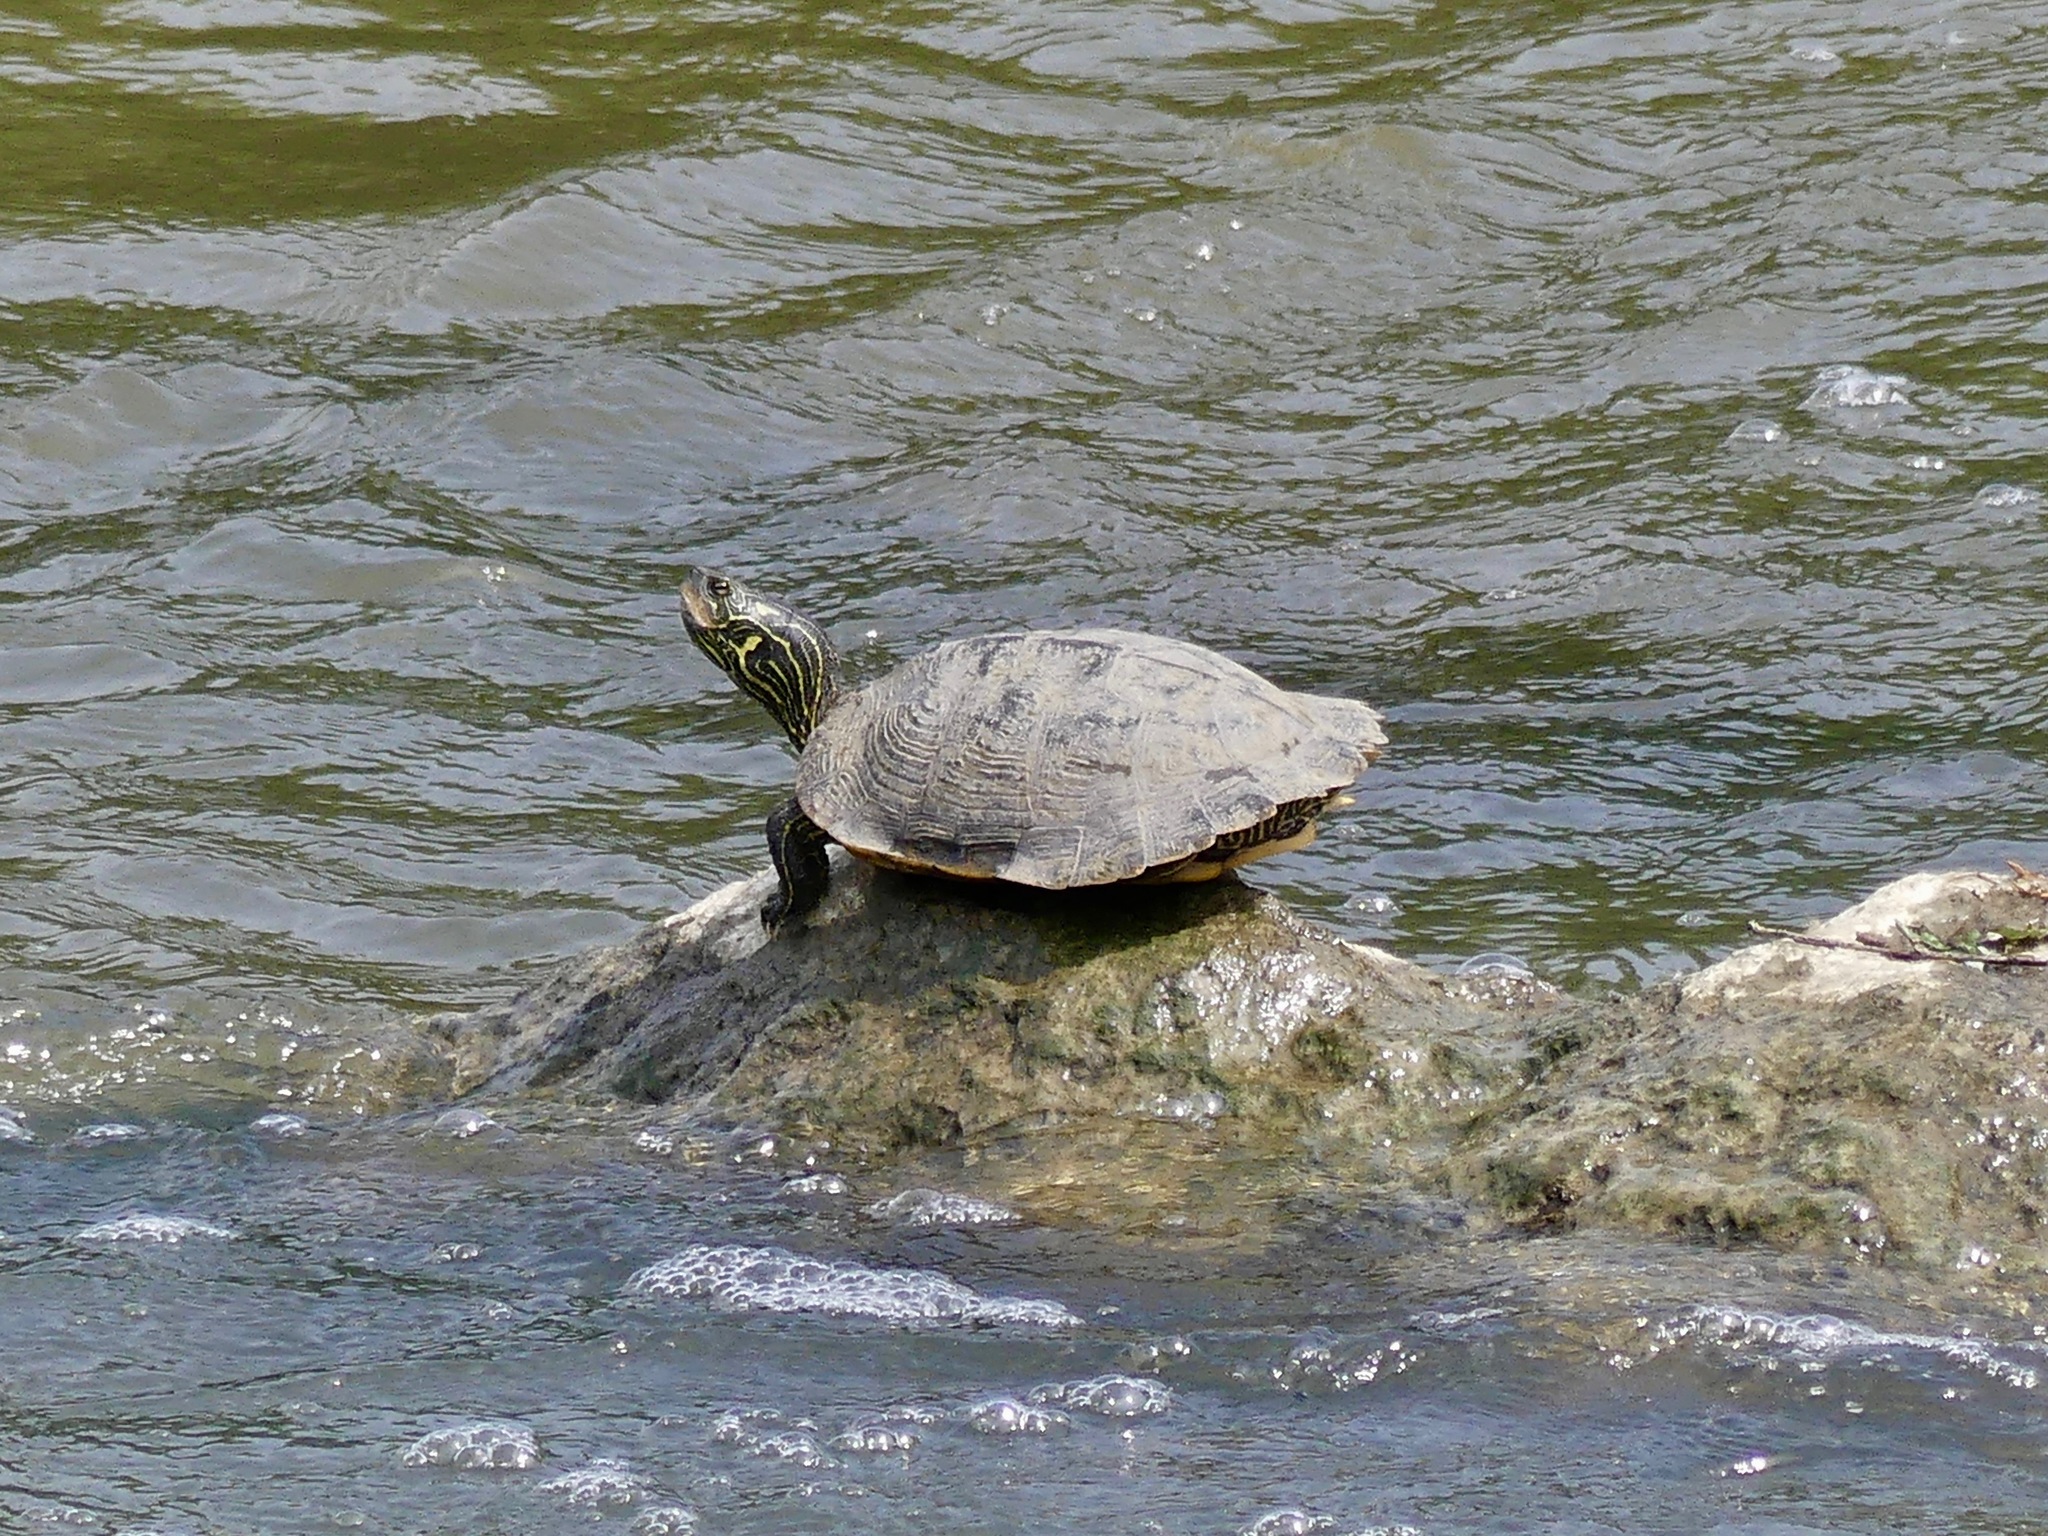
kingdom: Animalia
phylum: Chordata
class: Testudines
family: Emydidae
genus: Graptemys
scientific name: Graptemys geographica
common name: Common map turtle
